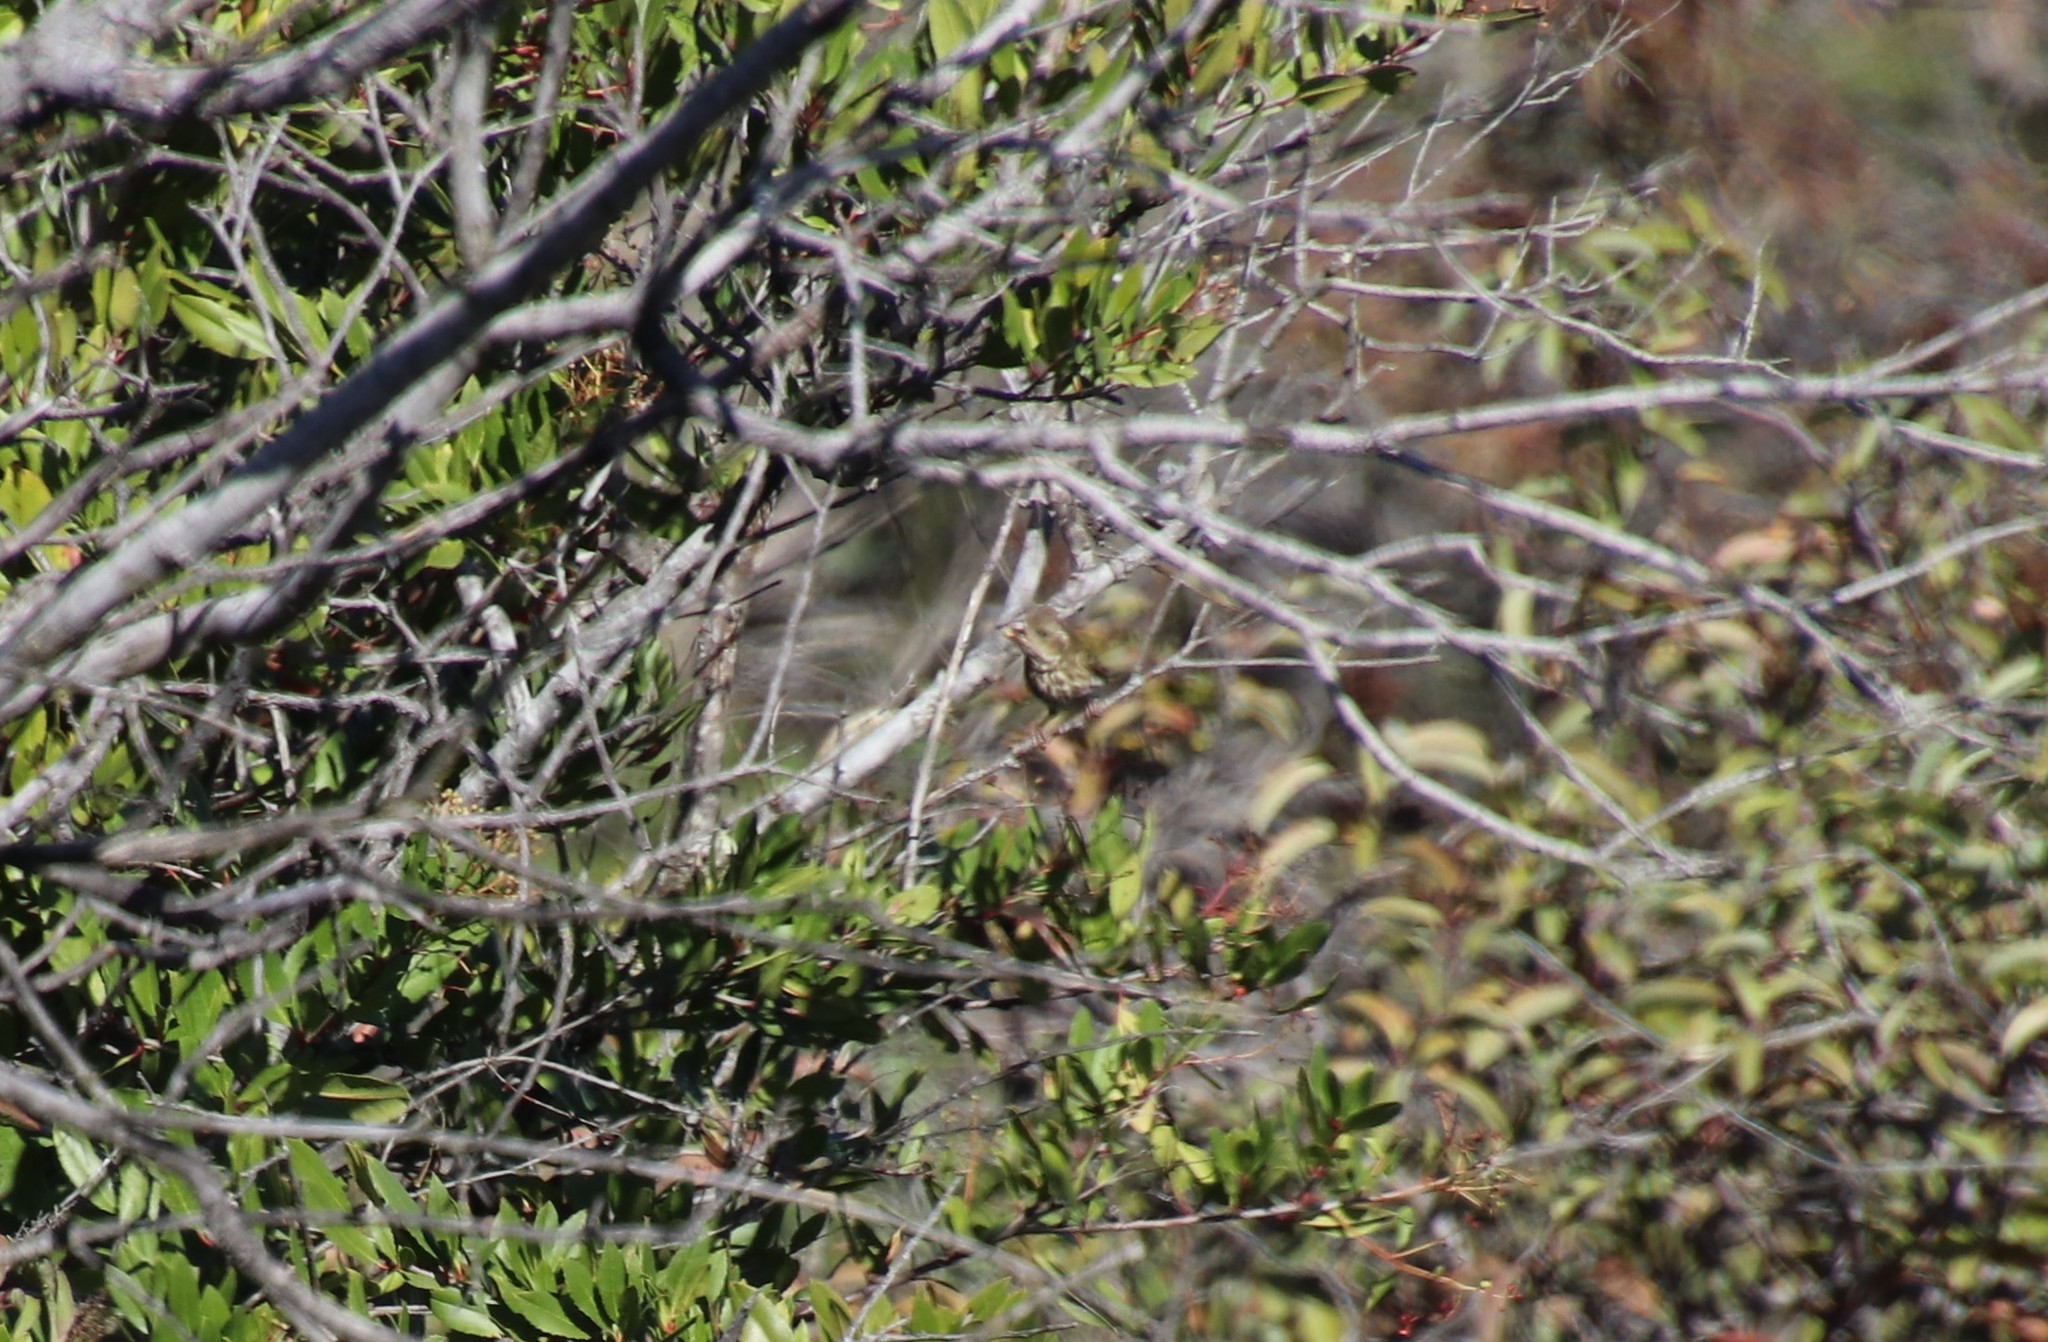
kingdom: Animalia
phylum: Chordata
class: Aves
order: Passeriformes
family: Fringillidae
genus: Haemorhous
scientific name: Haemorhous purpureus
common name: Purple finch
